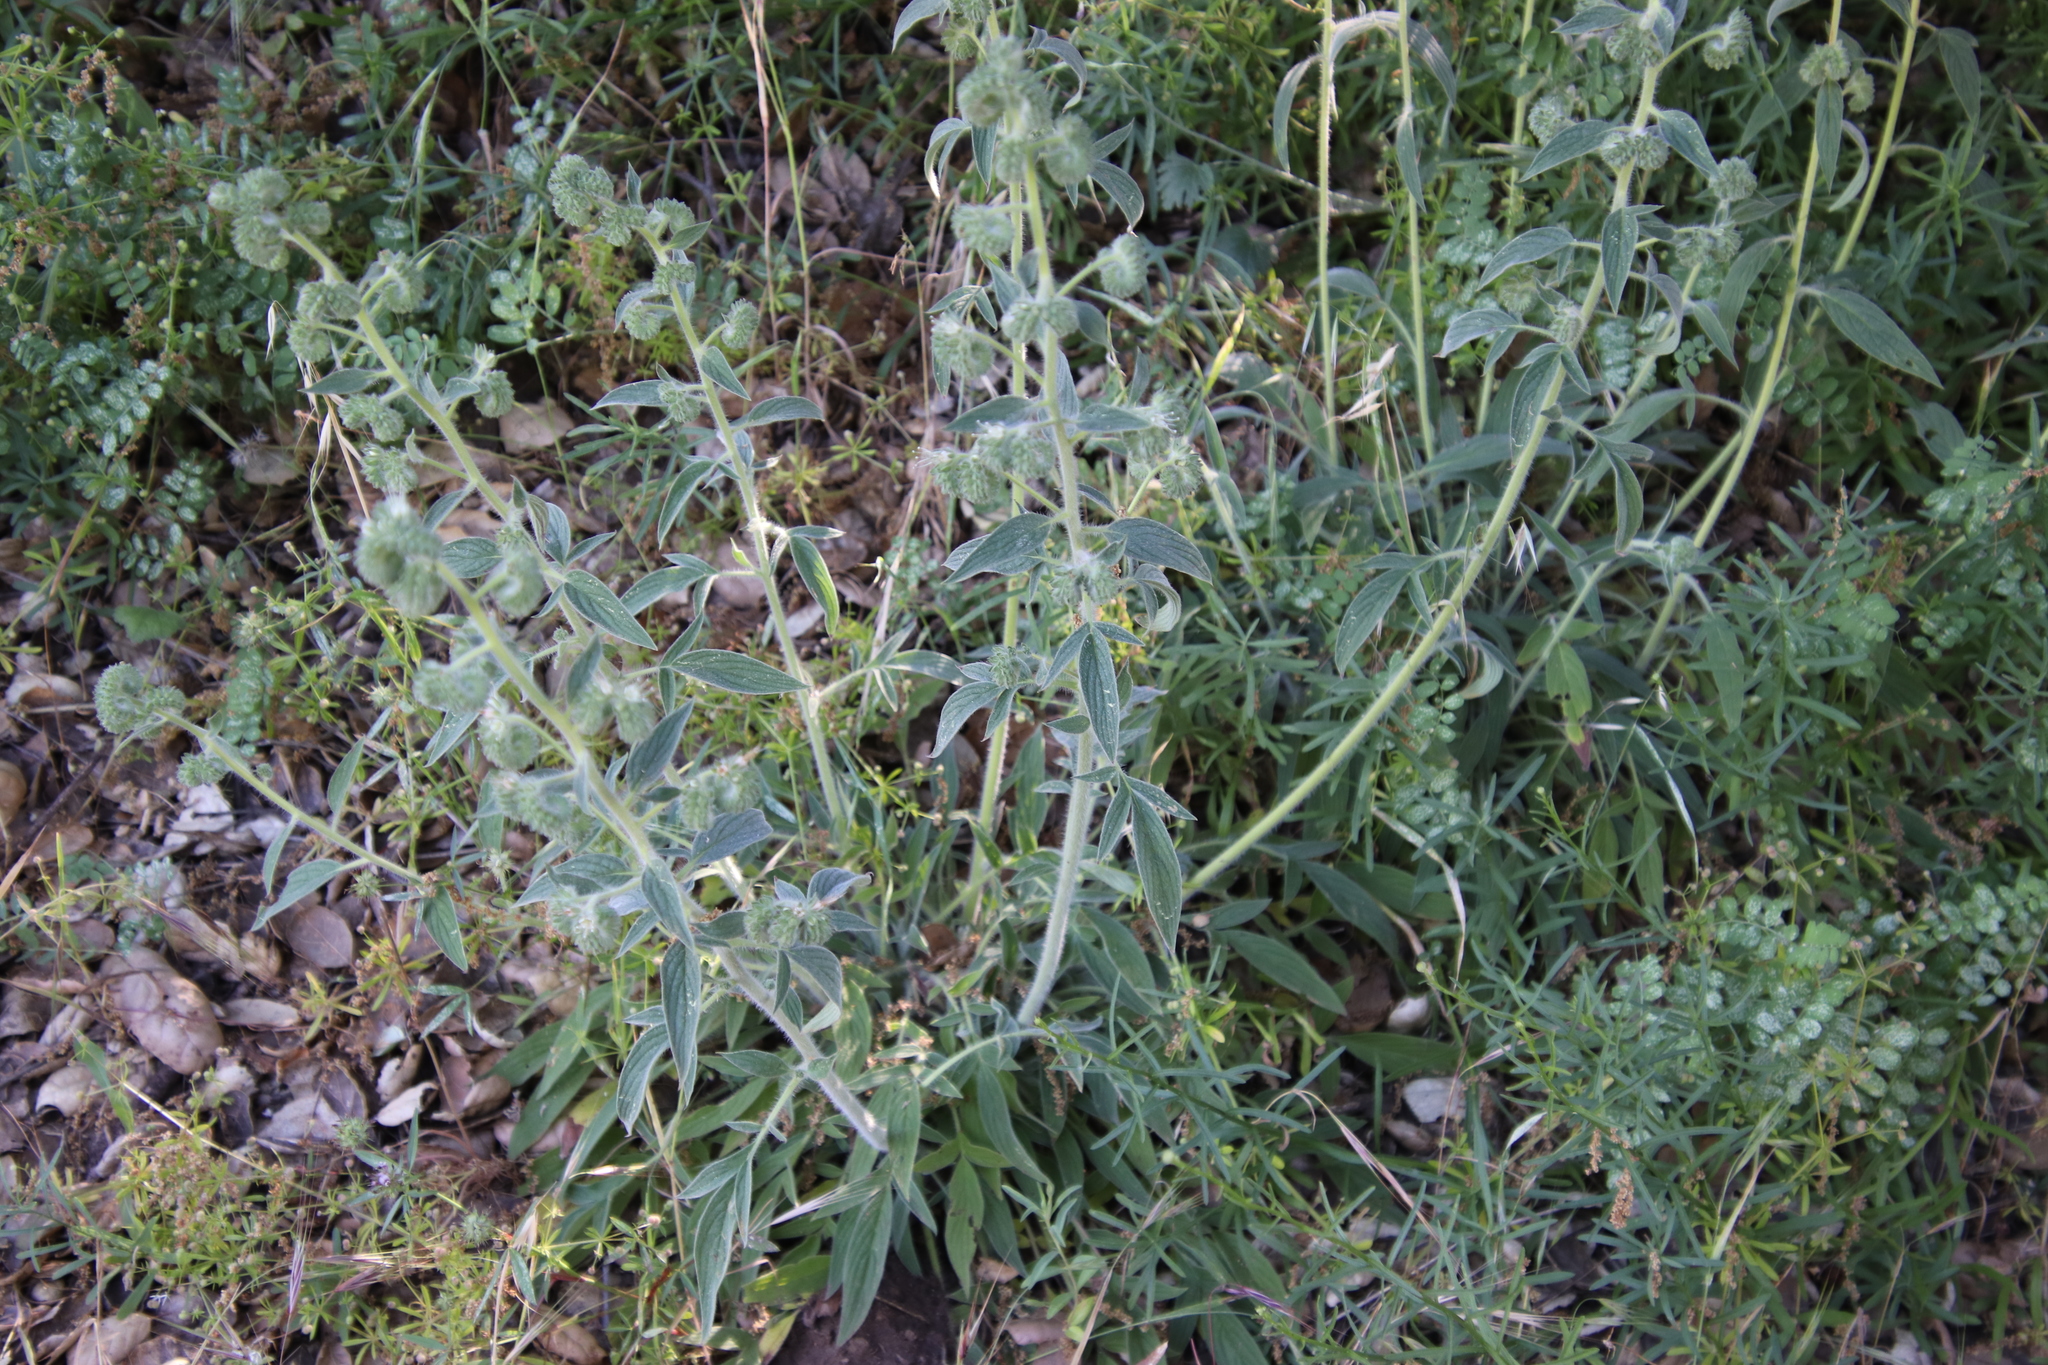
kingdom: Plantae
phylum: Tracheophyta
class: Magnoliopsida
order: Boraginales
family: Hydrophyllaceae
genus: Phacelia
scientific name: Phacelia imbricata
